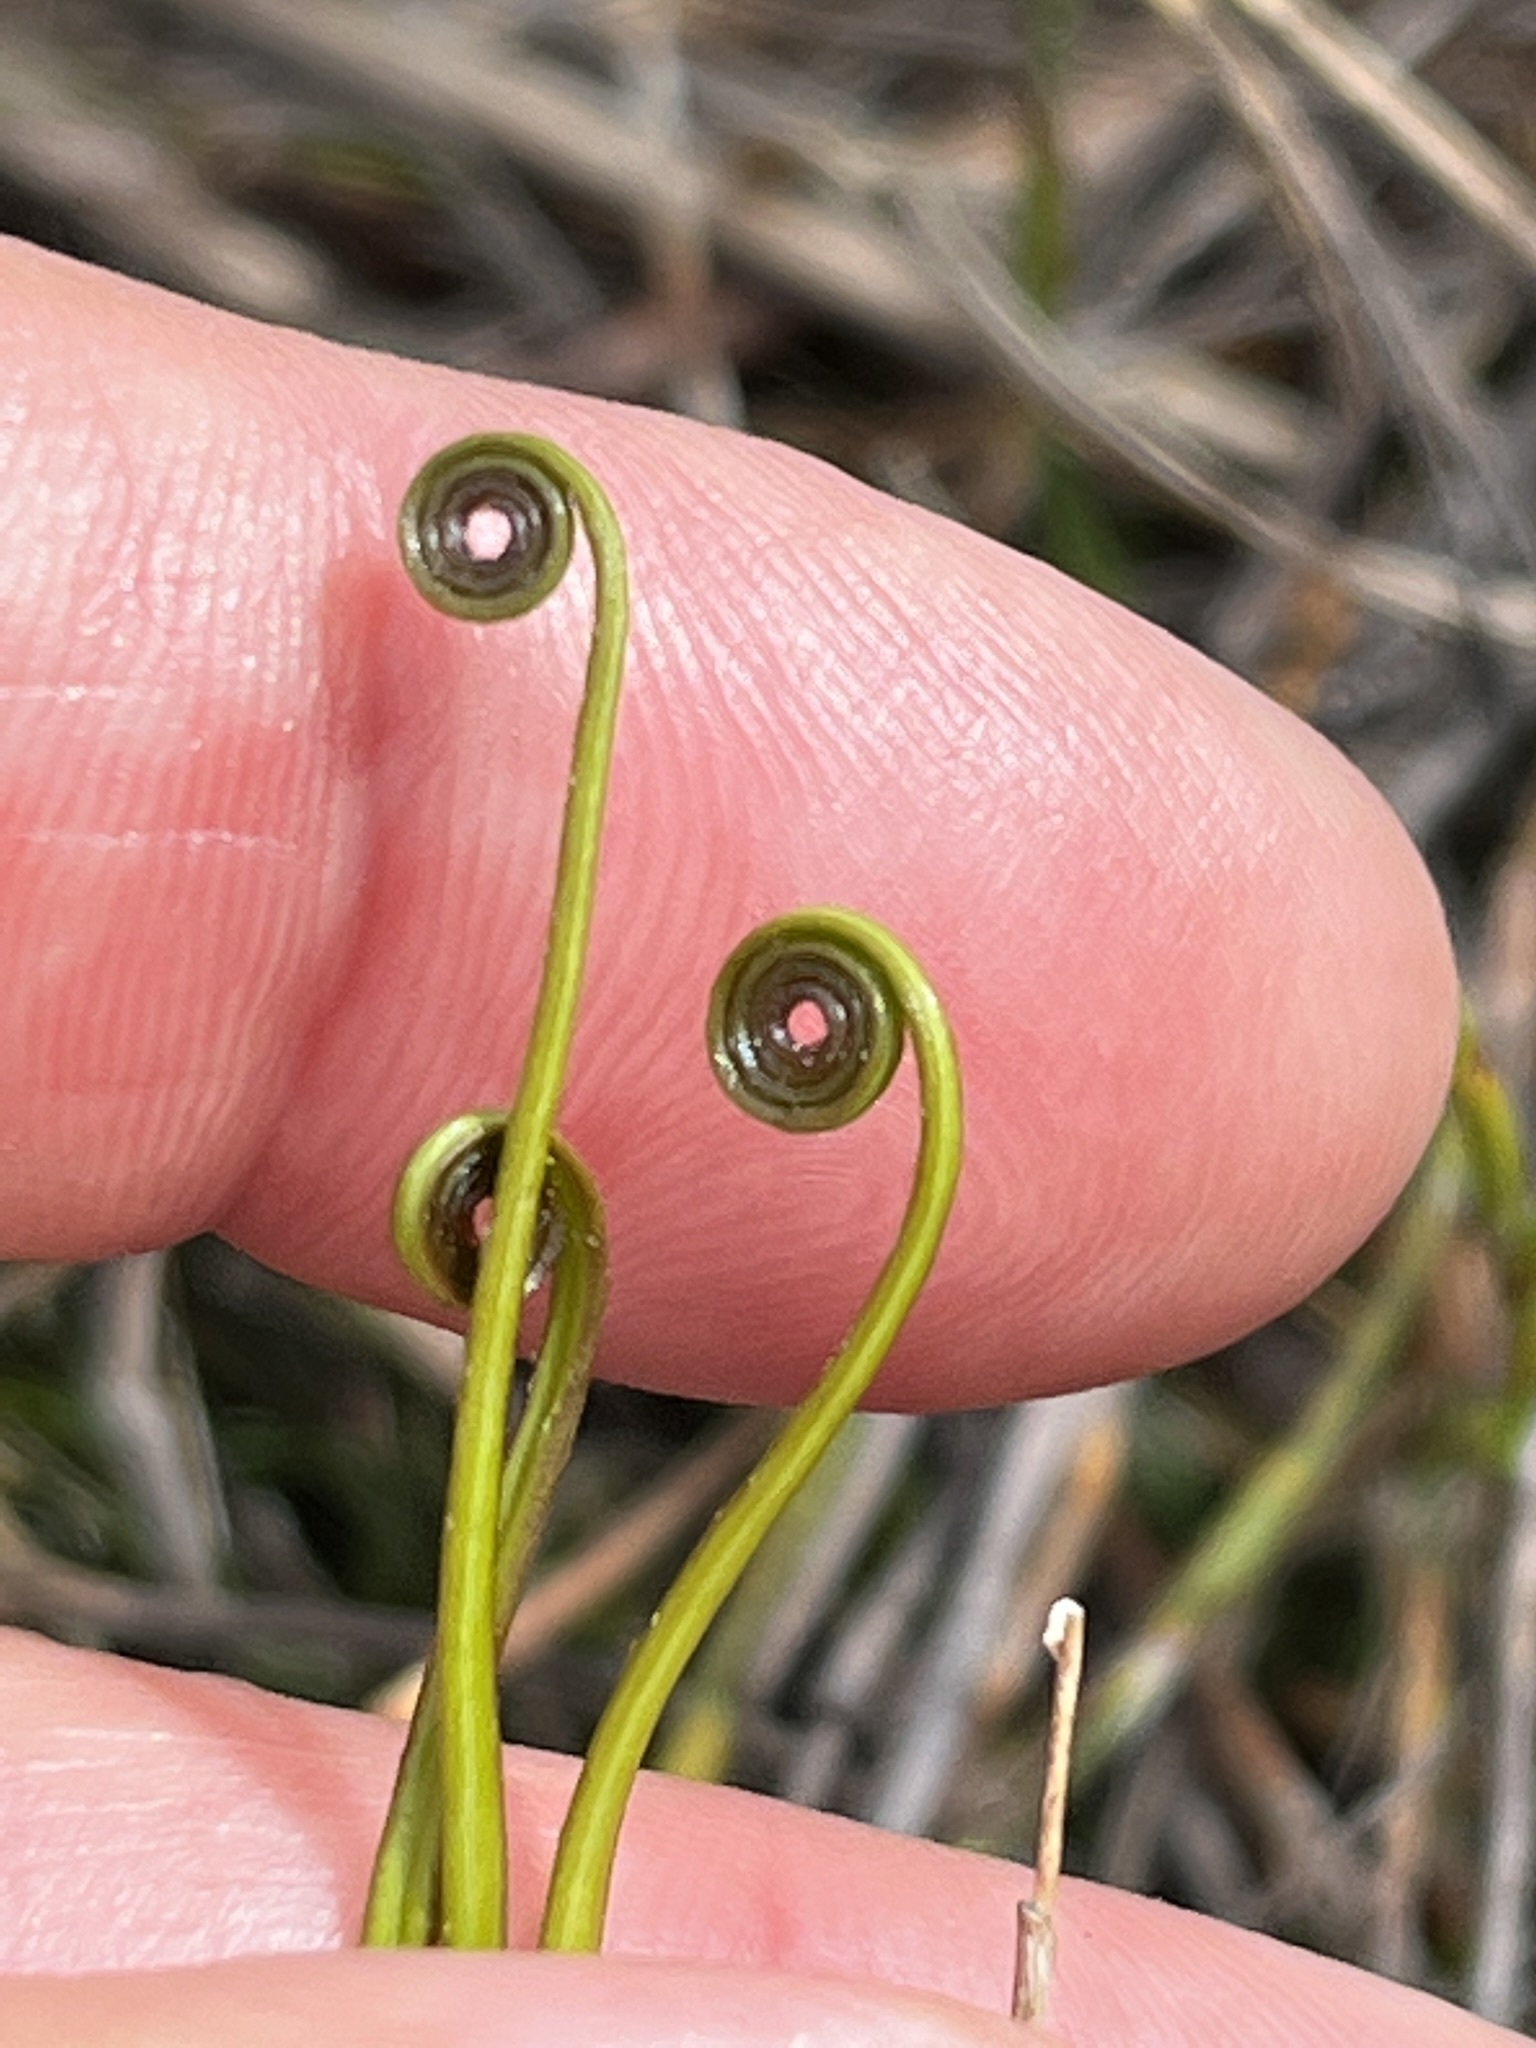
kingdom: Plantae
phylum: Tracheophyta
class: Polypodiopsida
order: Schizaeales
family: Schizaeaceae
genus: Schizaea
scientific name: Schizaea pectinata
